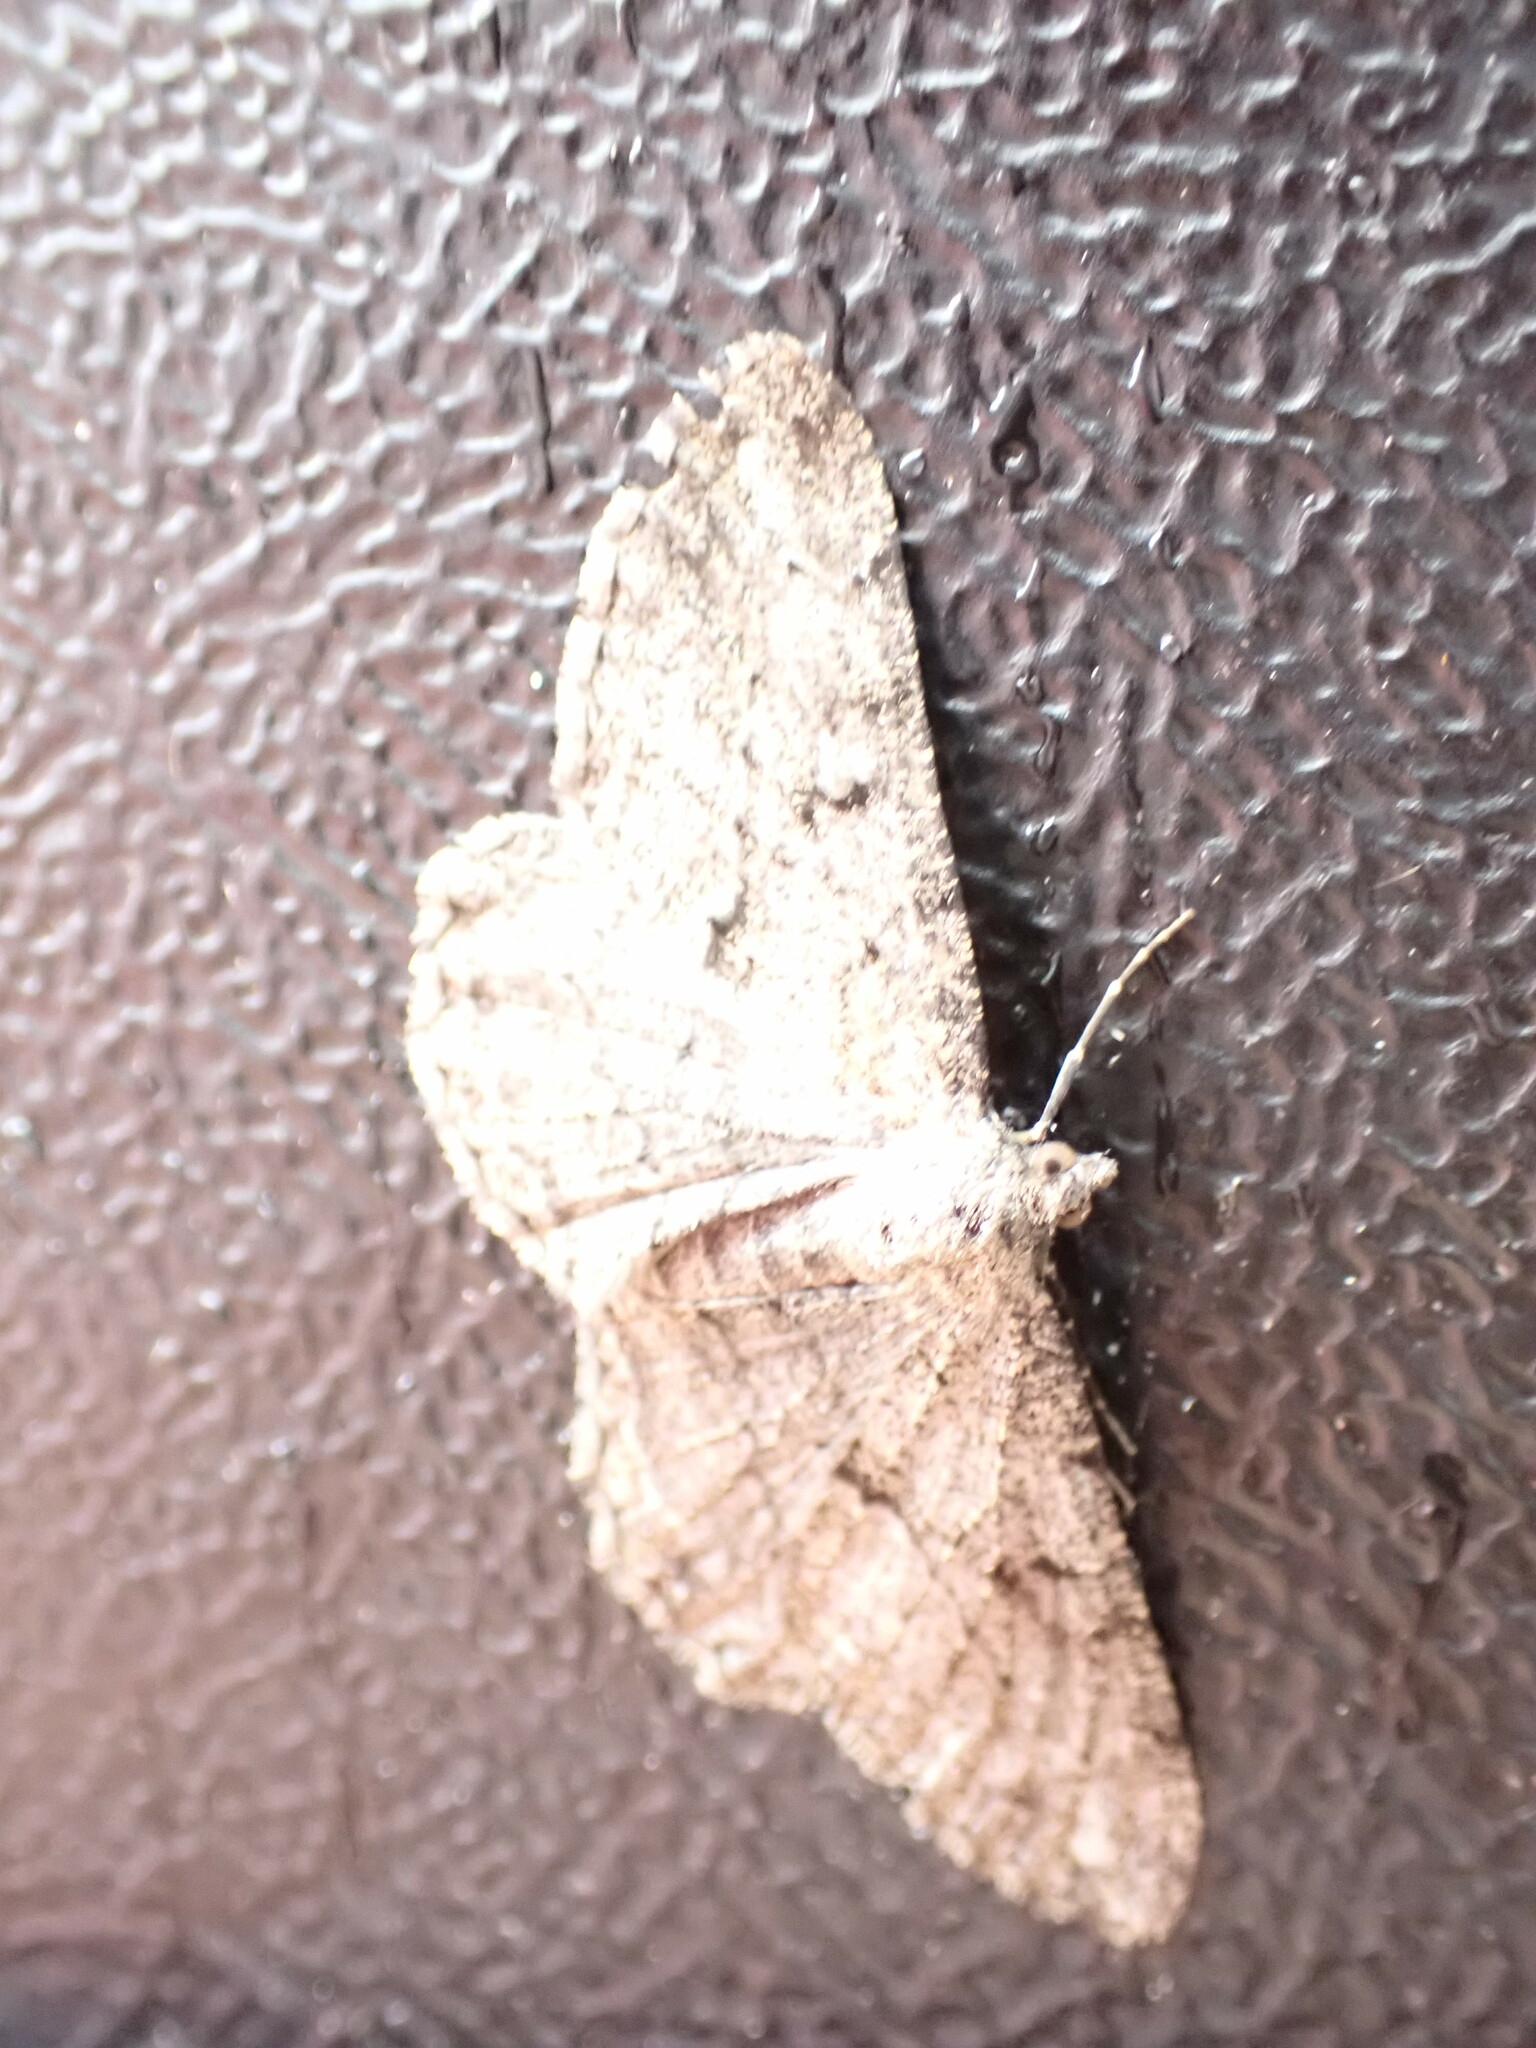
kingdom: Animalia
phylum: Arthropoda
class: Insecta
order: Lepidoptera
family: Geometridae
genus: Peribatodes
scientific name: Peribatodes rhomboidaria
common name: Willow beauty
